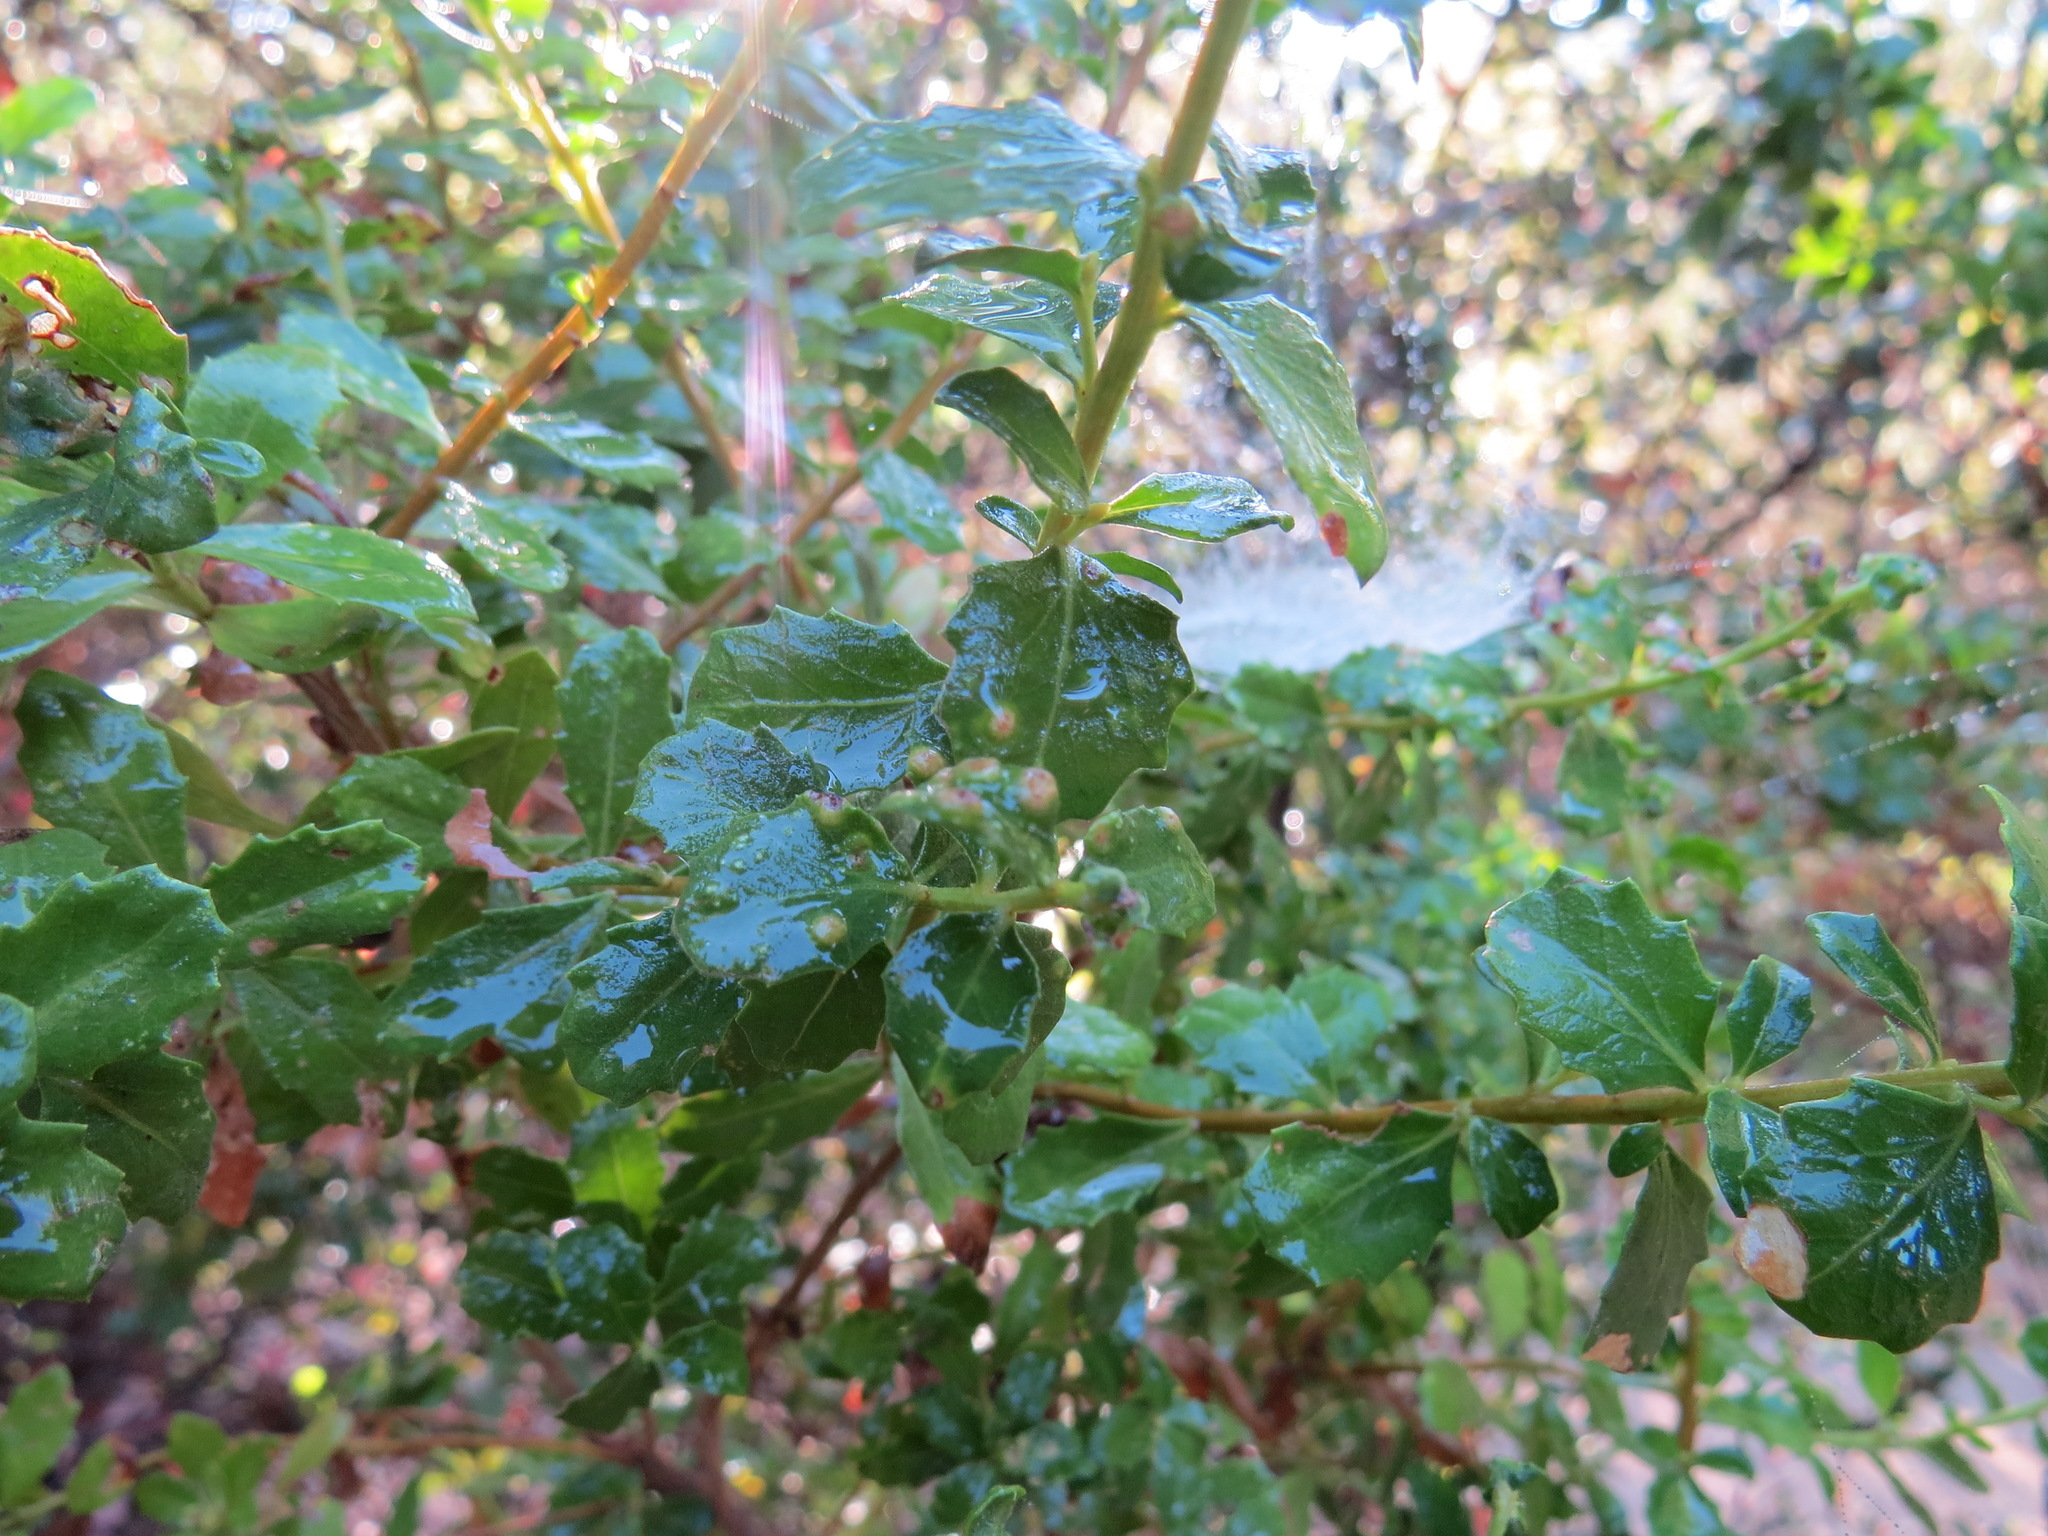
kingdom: Animalia
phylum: Arthropoda
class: Arachnida
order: Trombidiformes
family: Eriophyidae
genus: Aceria
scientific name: Aceria
